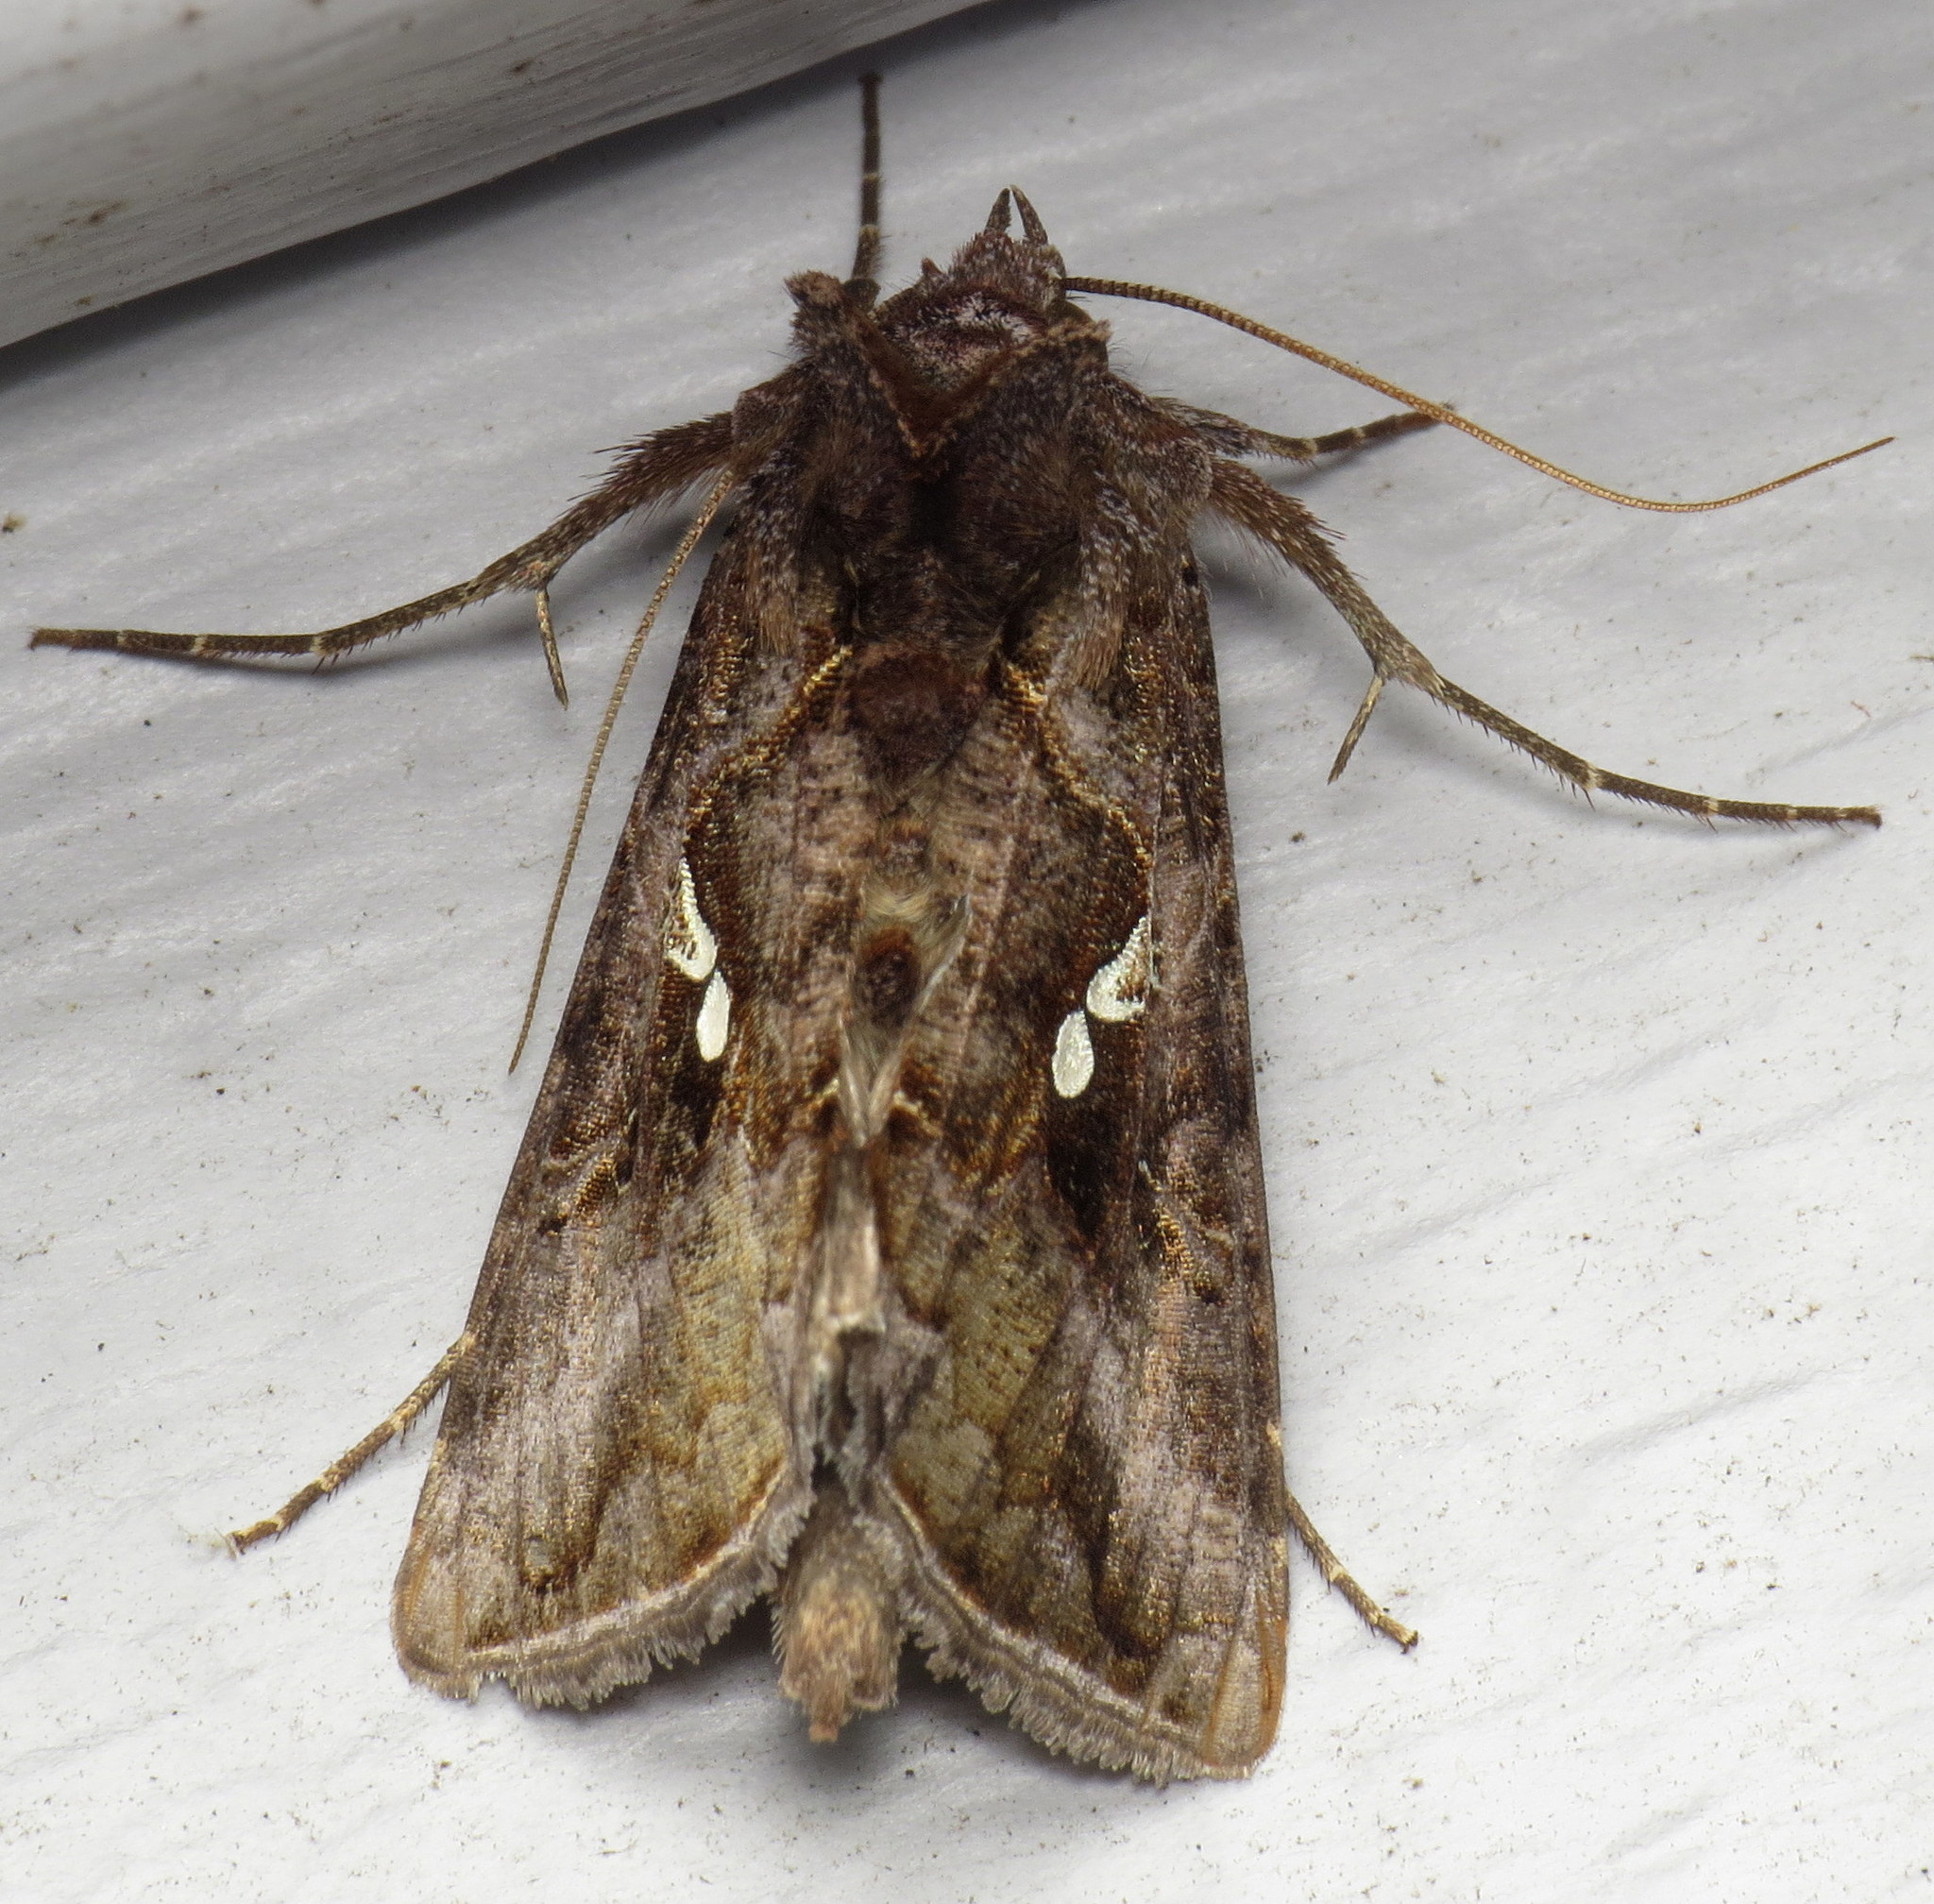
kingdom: Animalia
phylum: Arthropoda
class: Insecta
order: Lepidoptera
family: Noctuidae
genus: Autographa
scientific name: Autographa precationis
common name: Common looper moth
